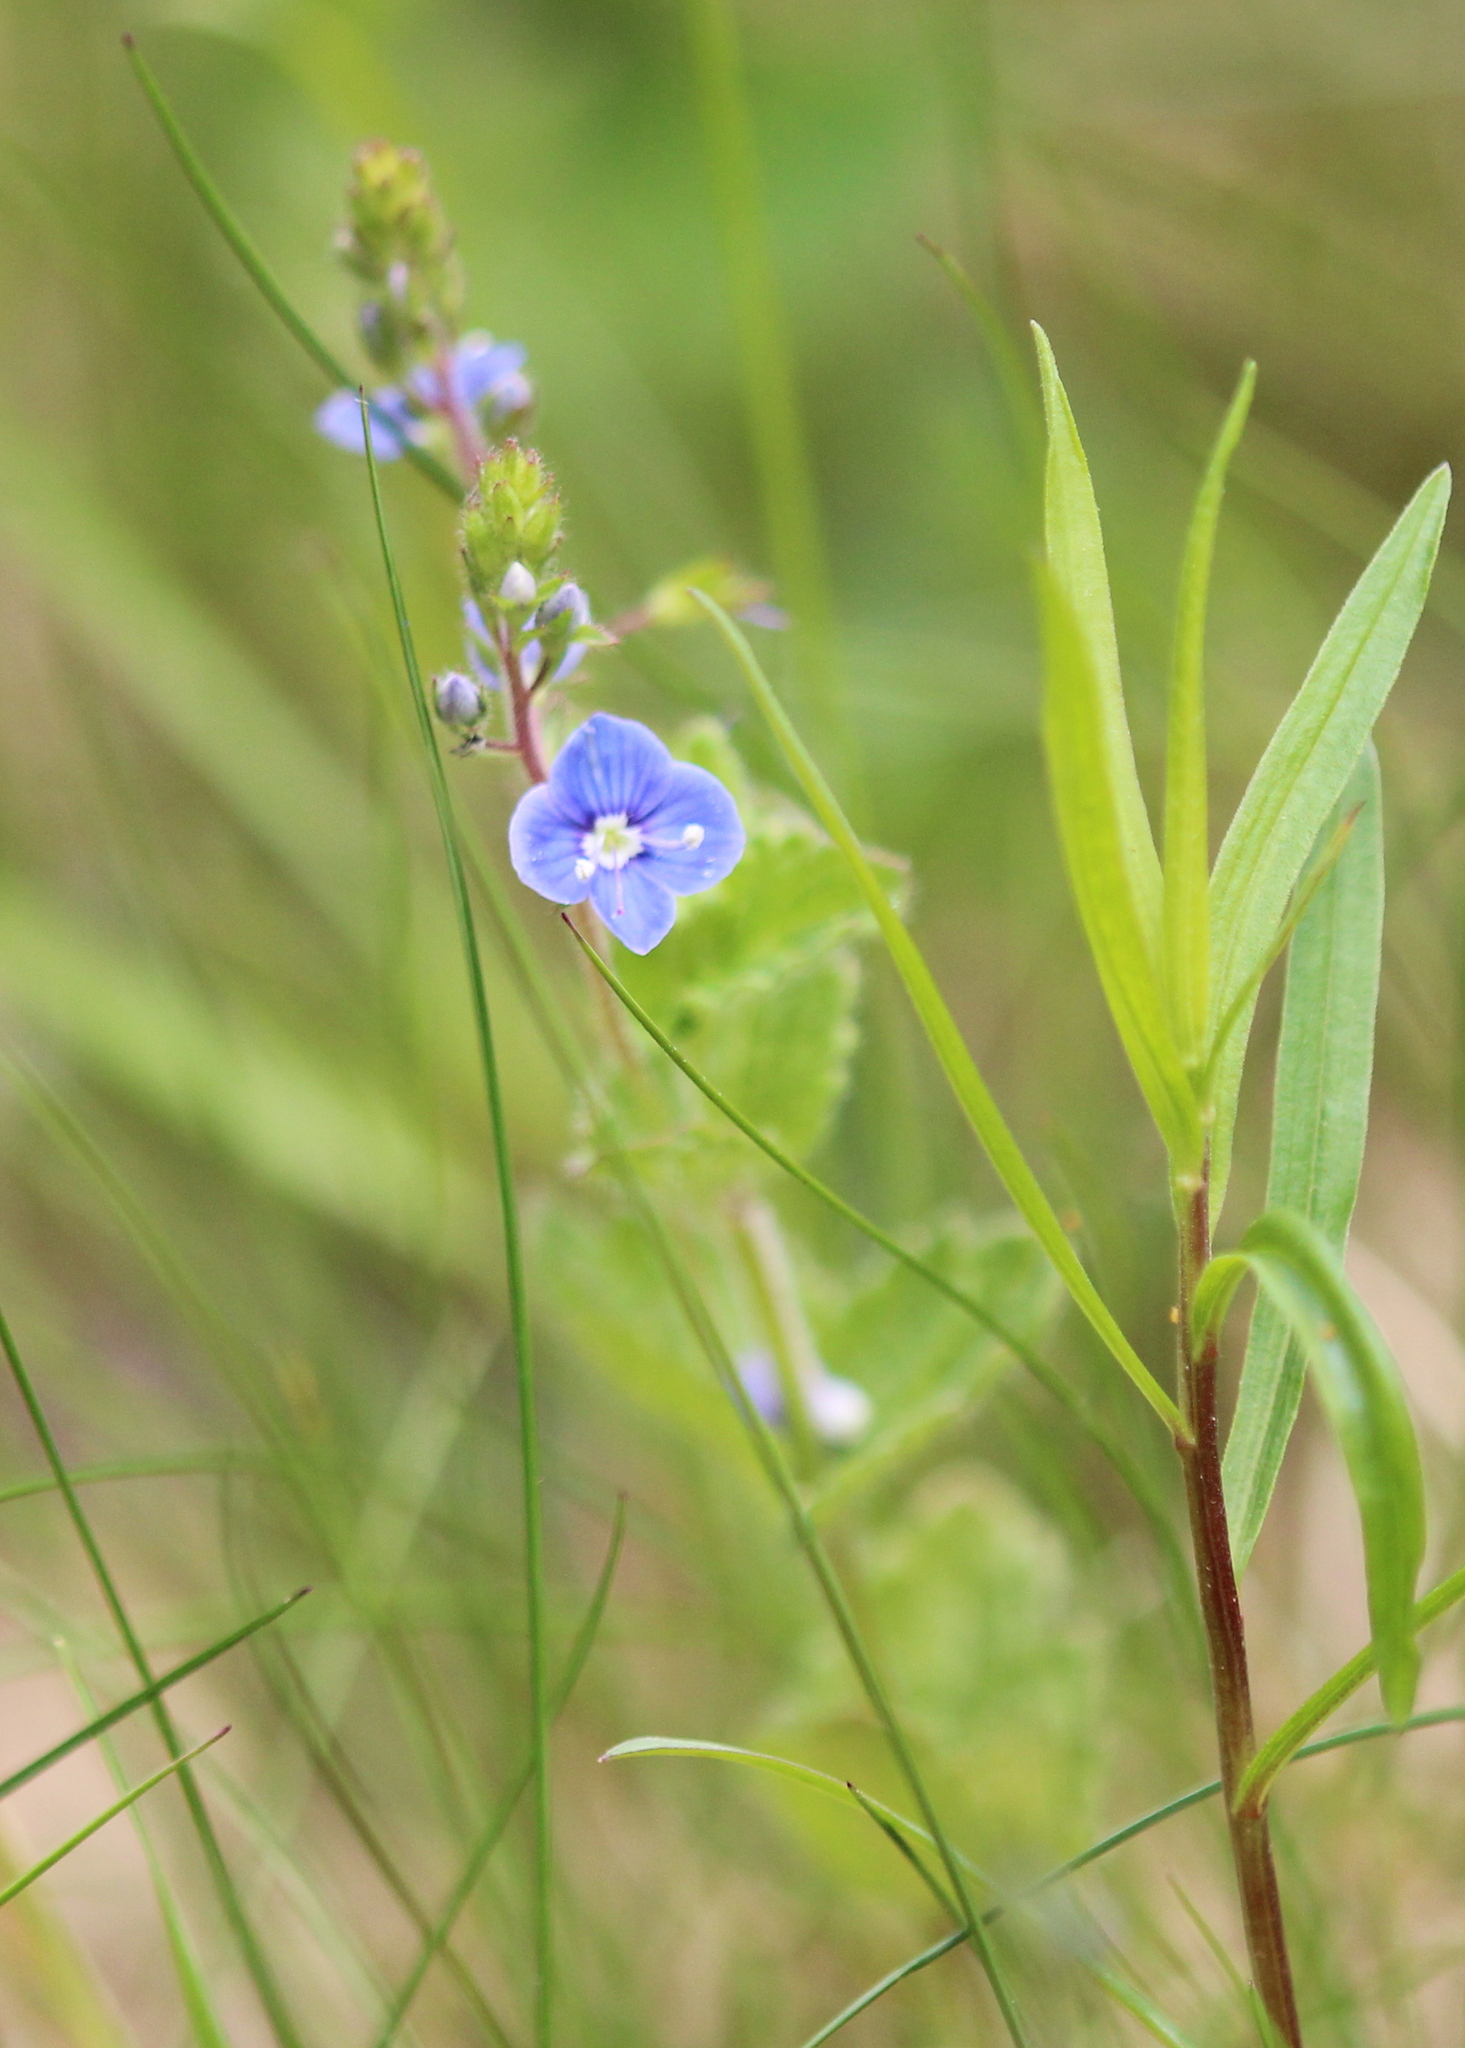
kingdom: Plantae
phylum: Tracheophyta
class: Magnoliopsida
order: Lamiales
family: Plantaginaceae
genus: Veronica
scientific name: Veronica chamaedrys
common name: Germander speedwell
